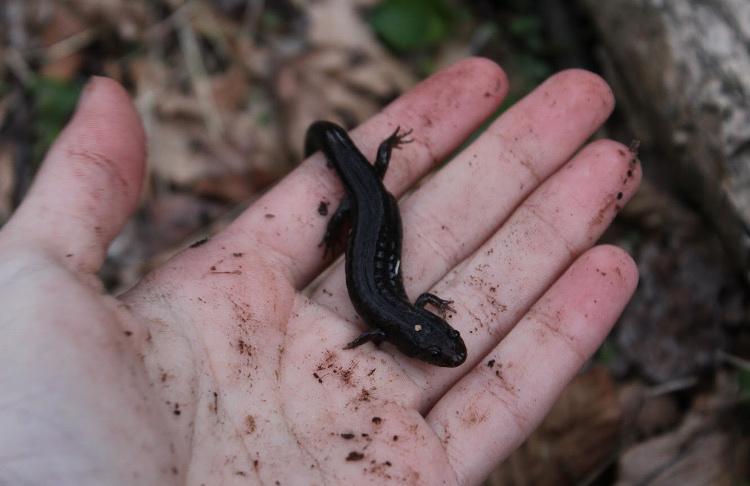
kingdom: Animalia
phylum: Chordata
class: Amphibia
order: Caudata
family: Plethodontidae
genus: Desmognathus
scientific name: Desmognathus fuscus
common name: Northern dusky salamander
